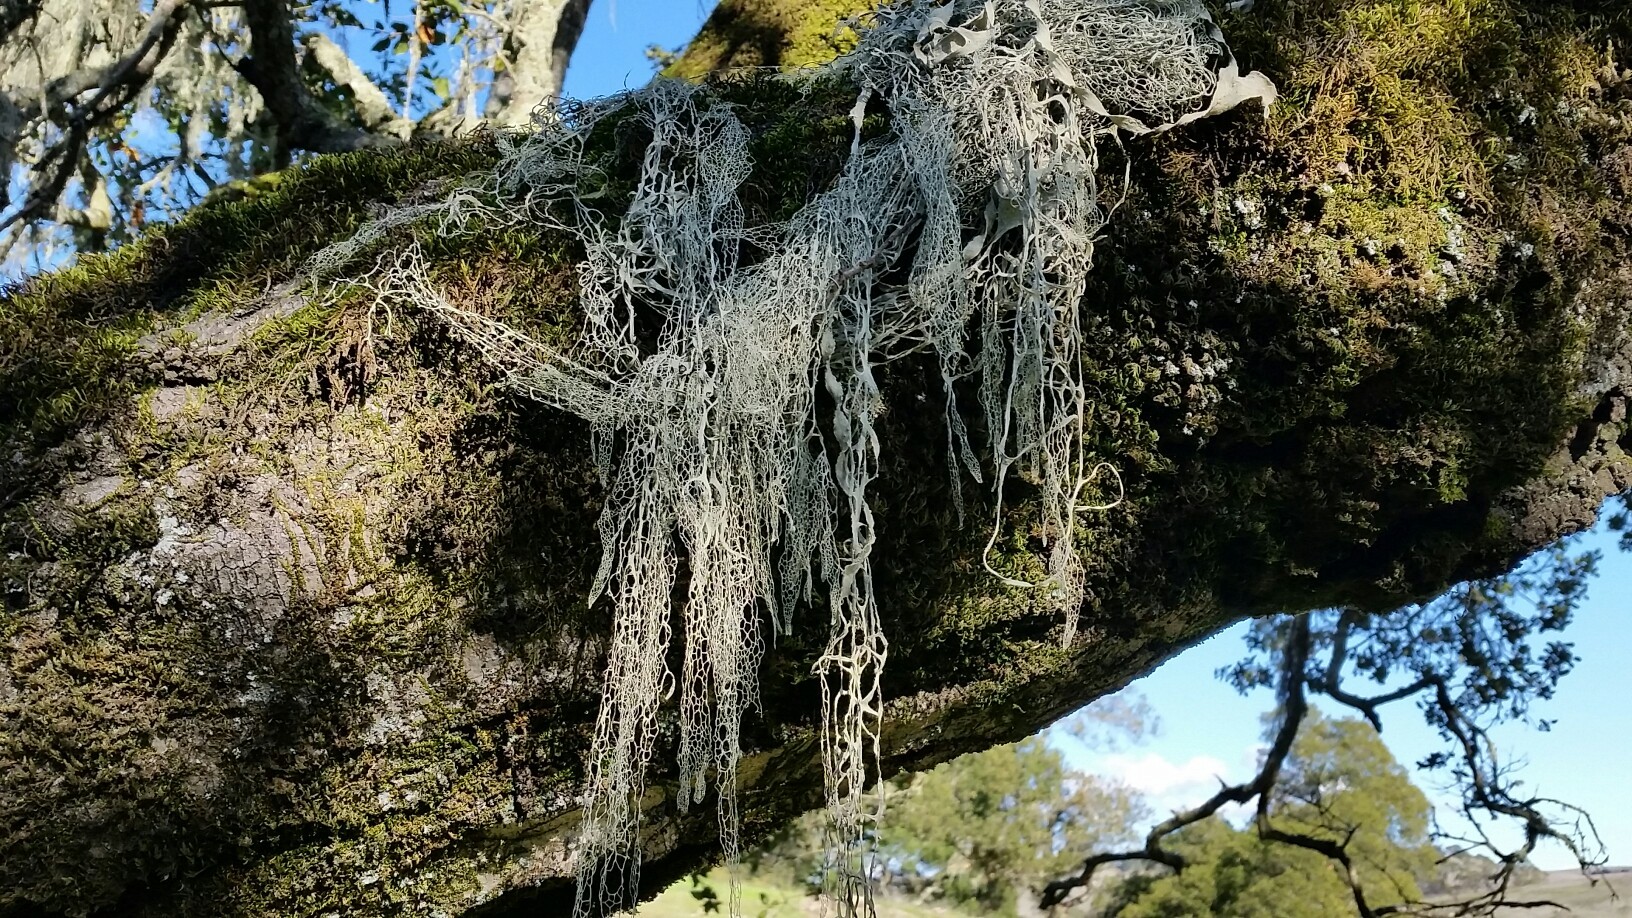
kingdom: Fungi
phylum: Ascomycota
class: Lecanoromycetes
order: Lecanorales
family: Ramalinaceae
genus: Ramalina
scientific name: Ramalina menziesii
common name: Lace lichen
